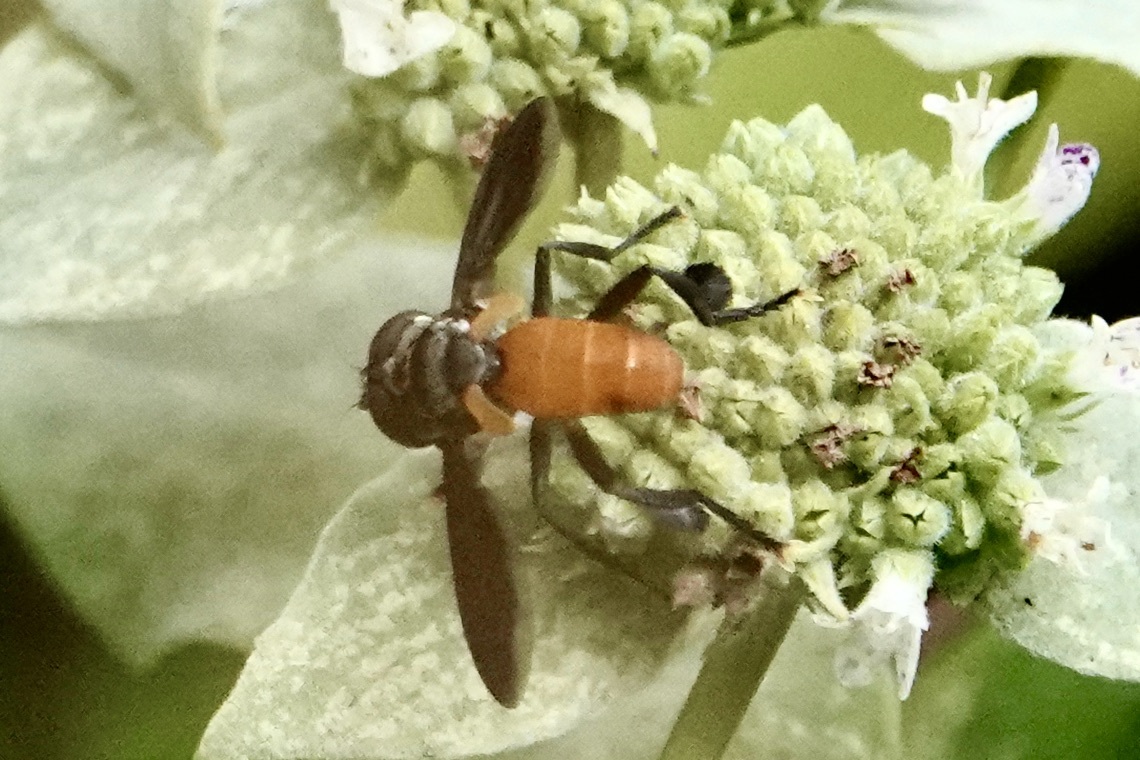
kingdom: Animalia
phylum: Arthropoda
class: Insecta
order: Diptera
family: Tachinidae
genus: Trichopoda
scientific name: Trichopoda pennipes
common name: Tachinid fly
